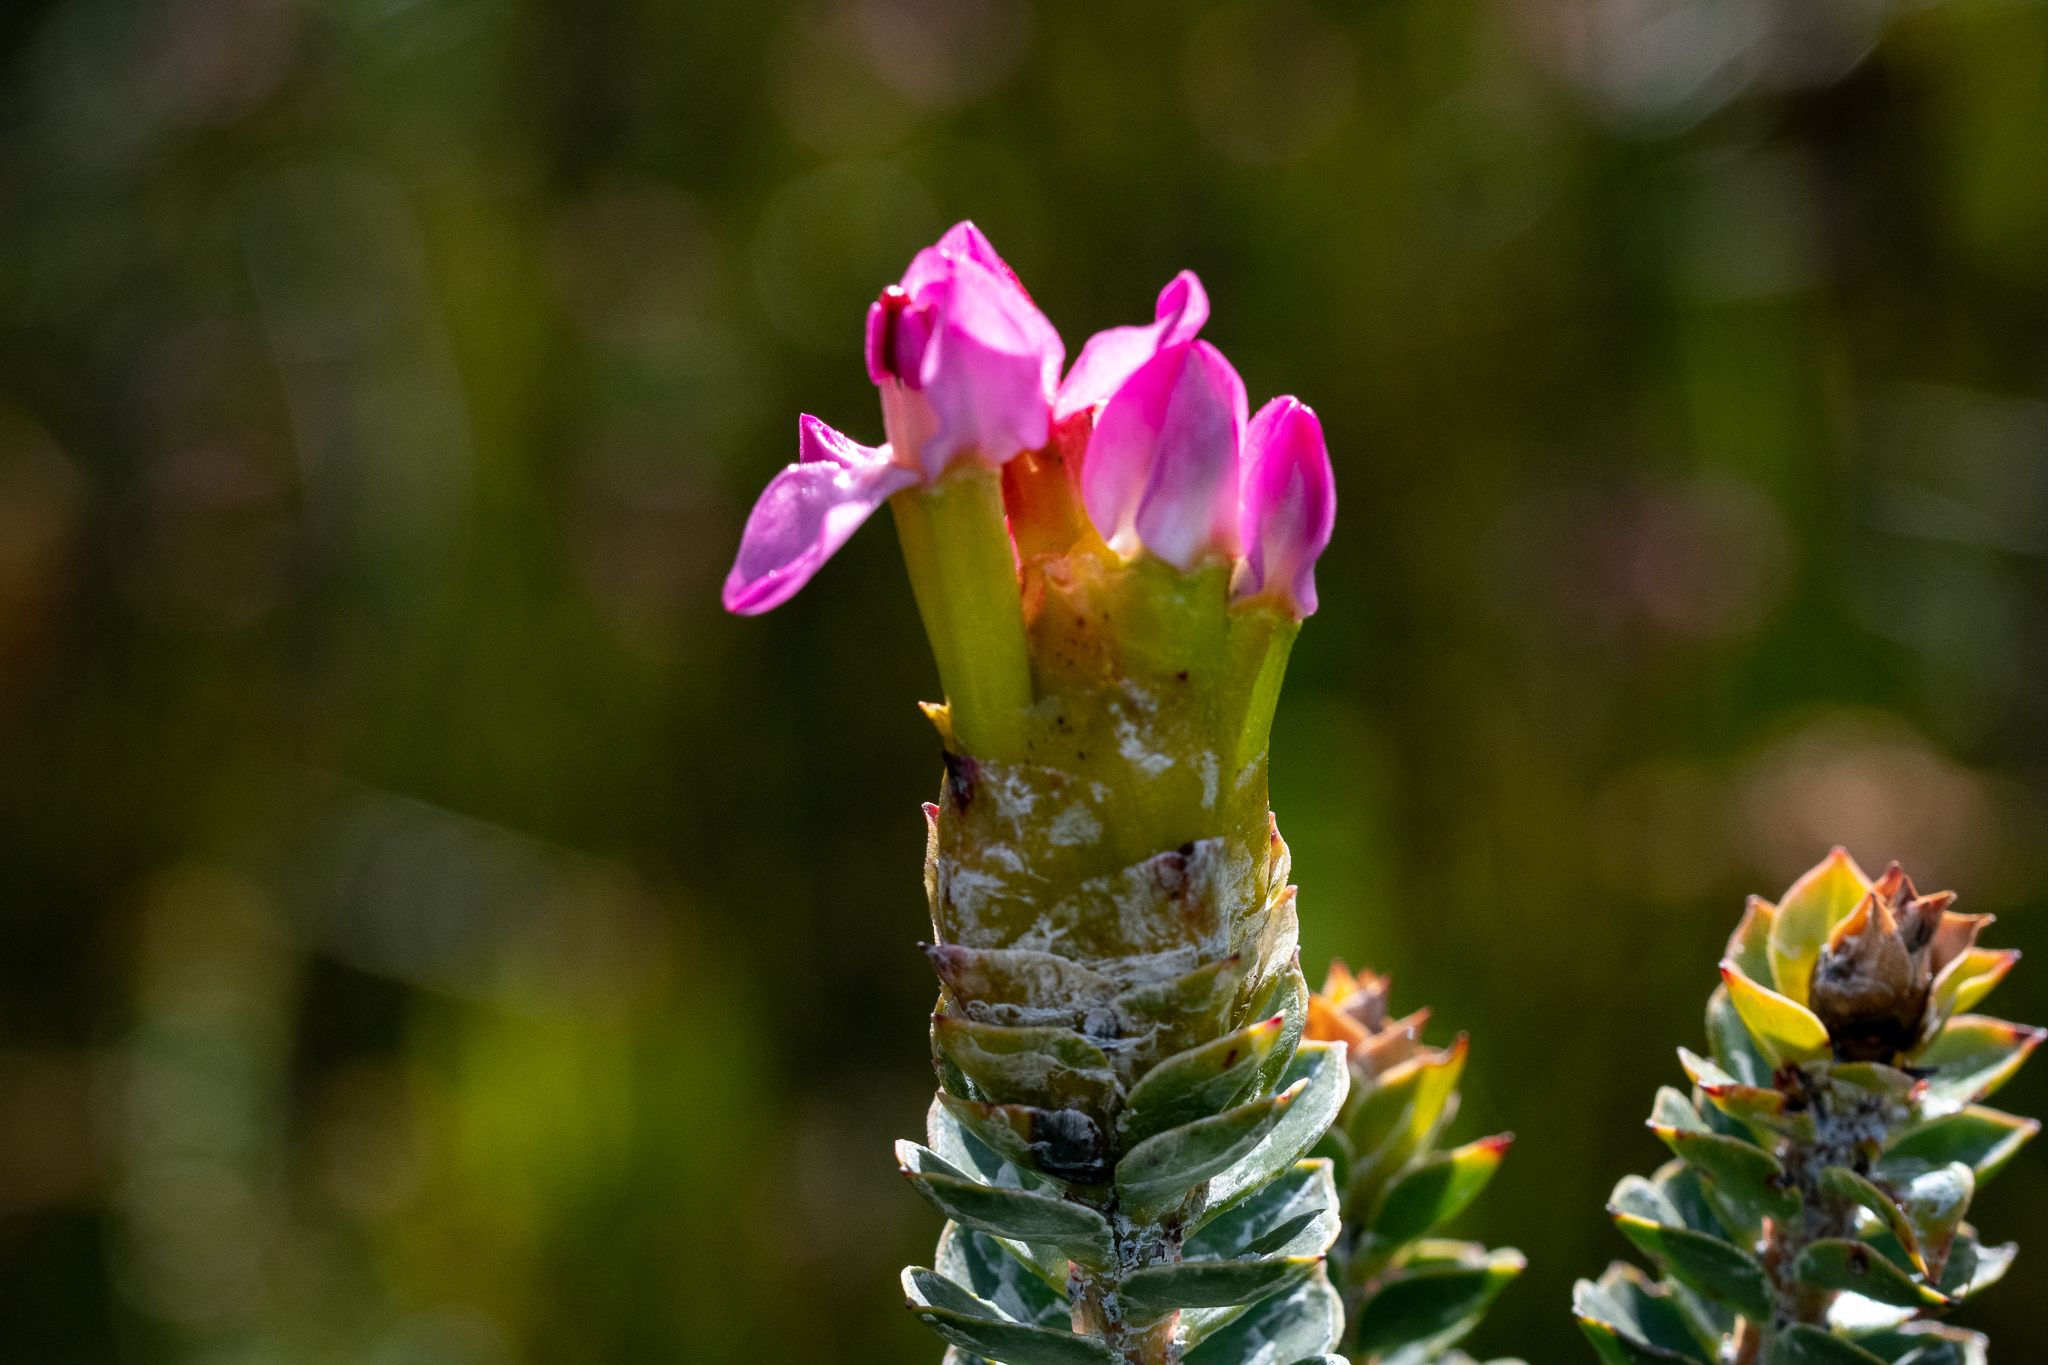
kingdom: Plantae
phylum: Tracheophyta
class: Magnoliopsida
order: Myrtales
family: Penaeaceae
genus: Saltera
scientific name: Saltera sarcocolla
